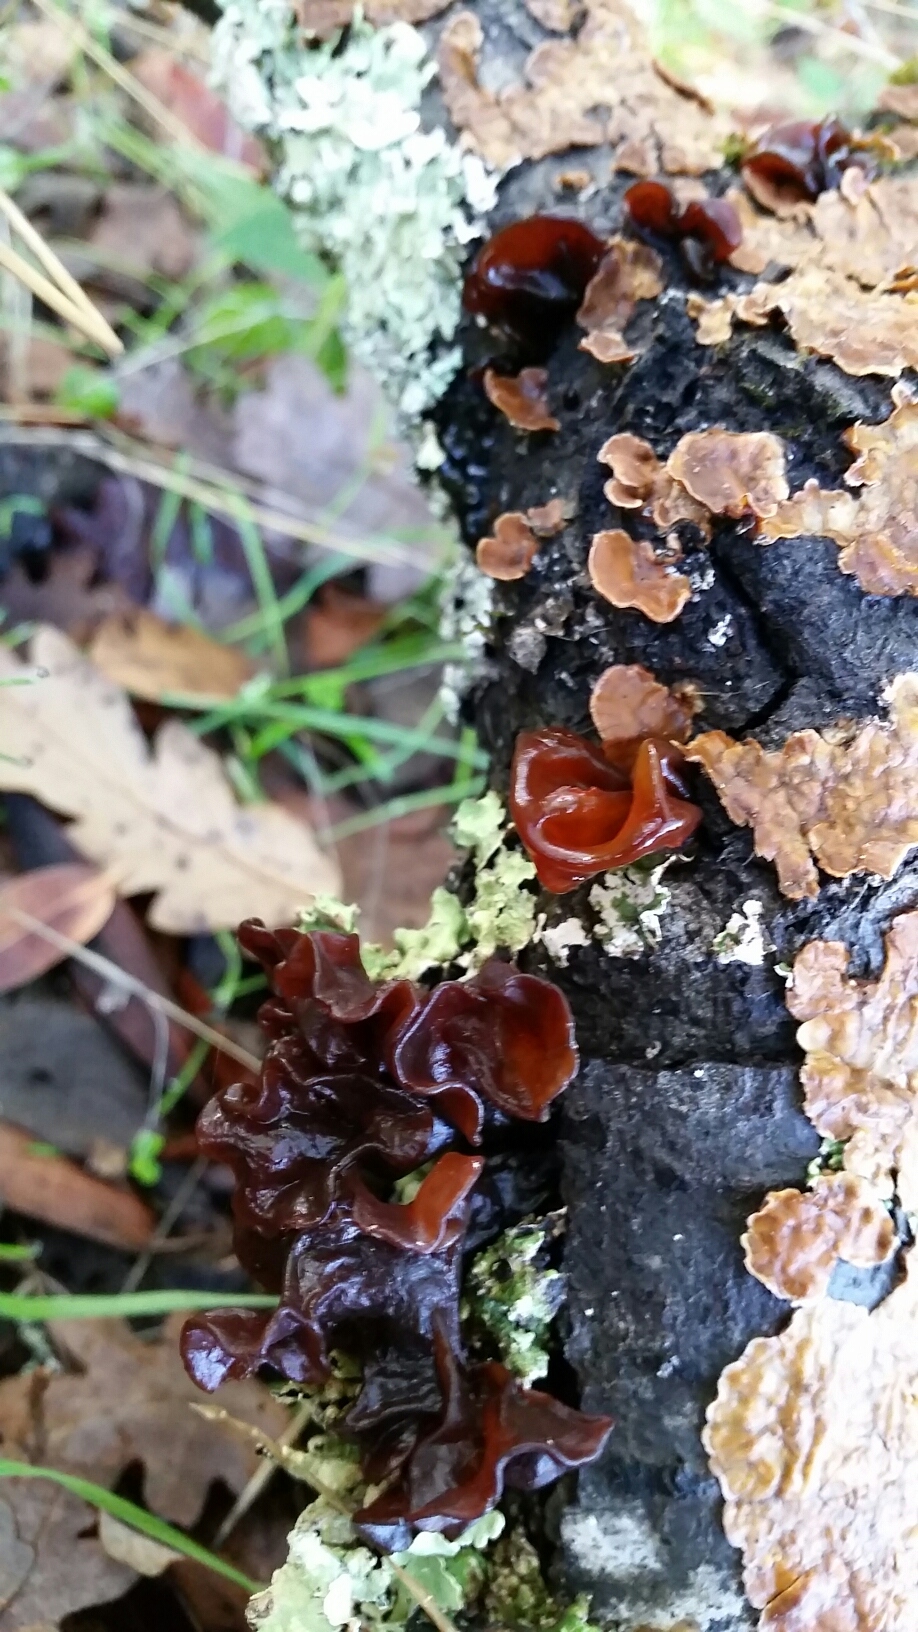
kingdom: Fungi
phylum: Basidiomycota
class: Tremellomycetes
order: Tremellales
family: Tremellaceae
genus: Phaeotremella
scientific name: Phaeotremella foliacea
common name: Leafy brain
